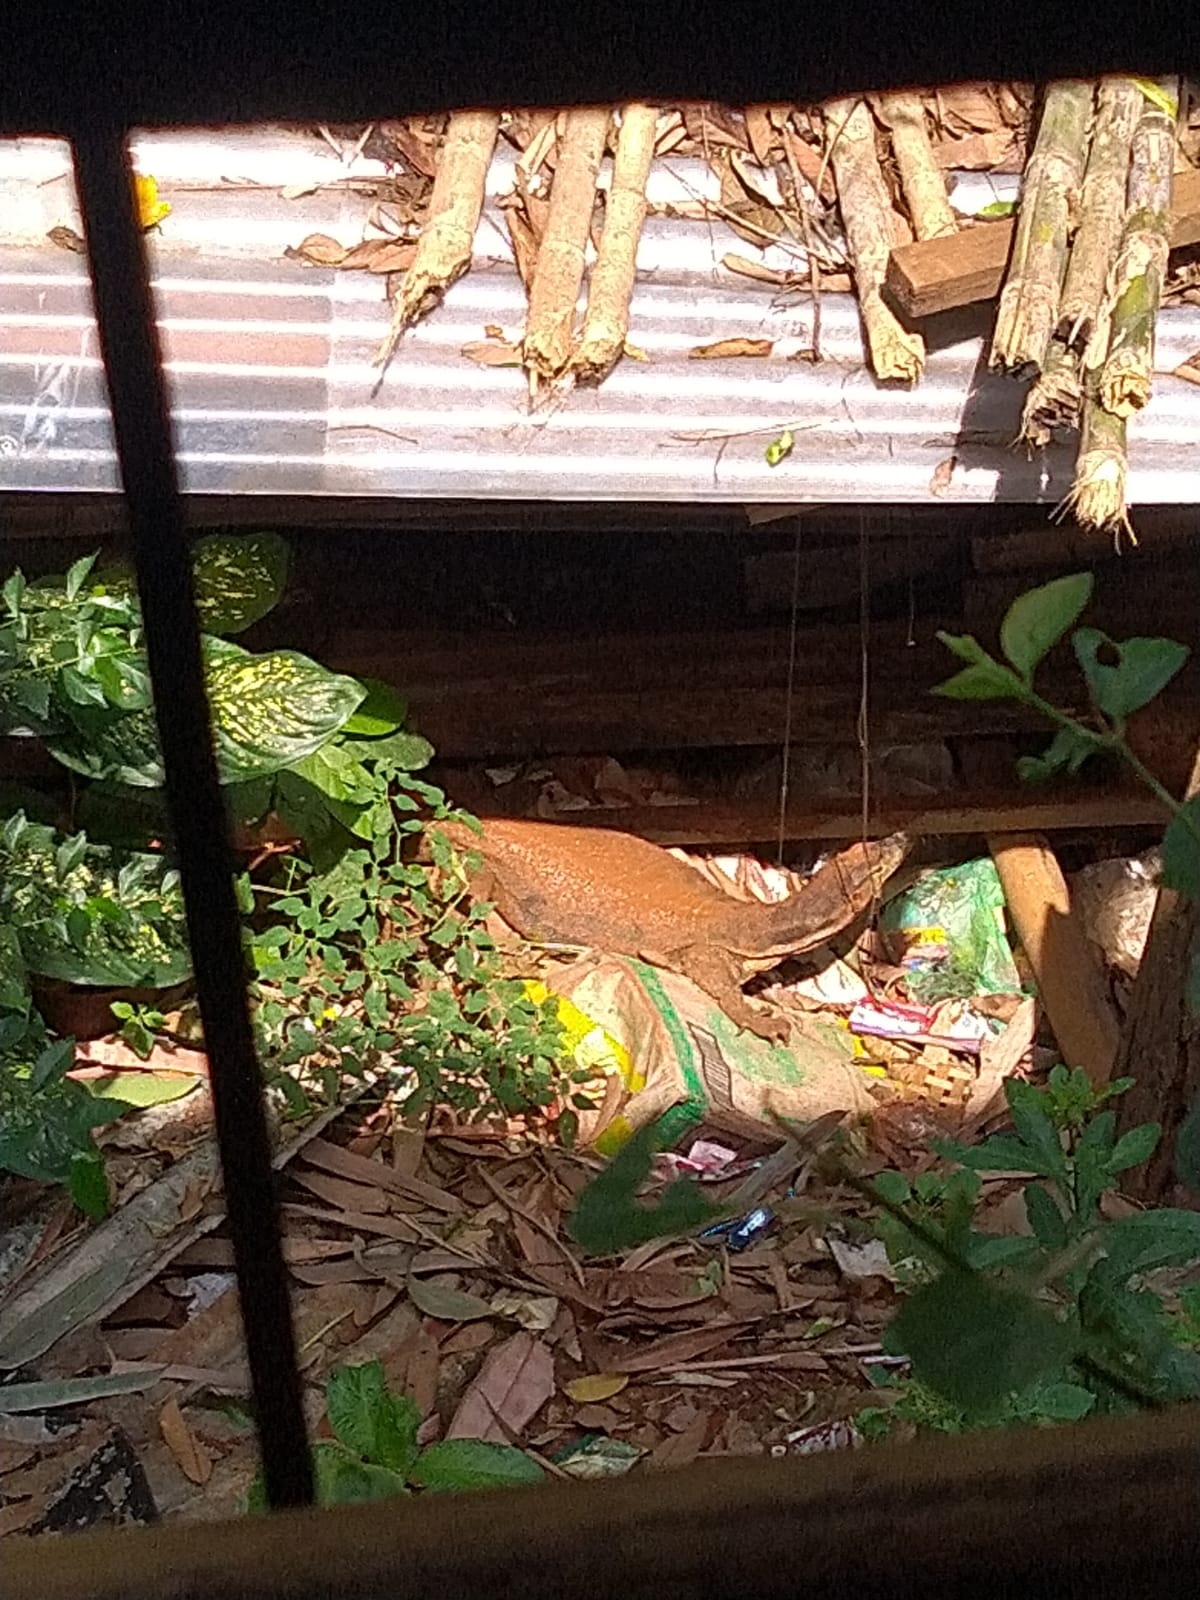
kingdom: Animalia
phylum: Chordata
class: Squamata
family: Varanidae
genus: Varanus
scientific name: Varanus salvator
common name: Common water monitor
